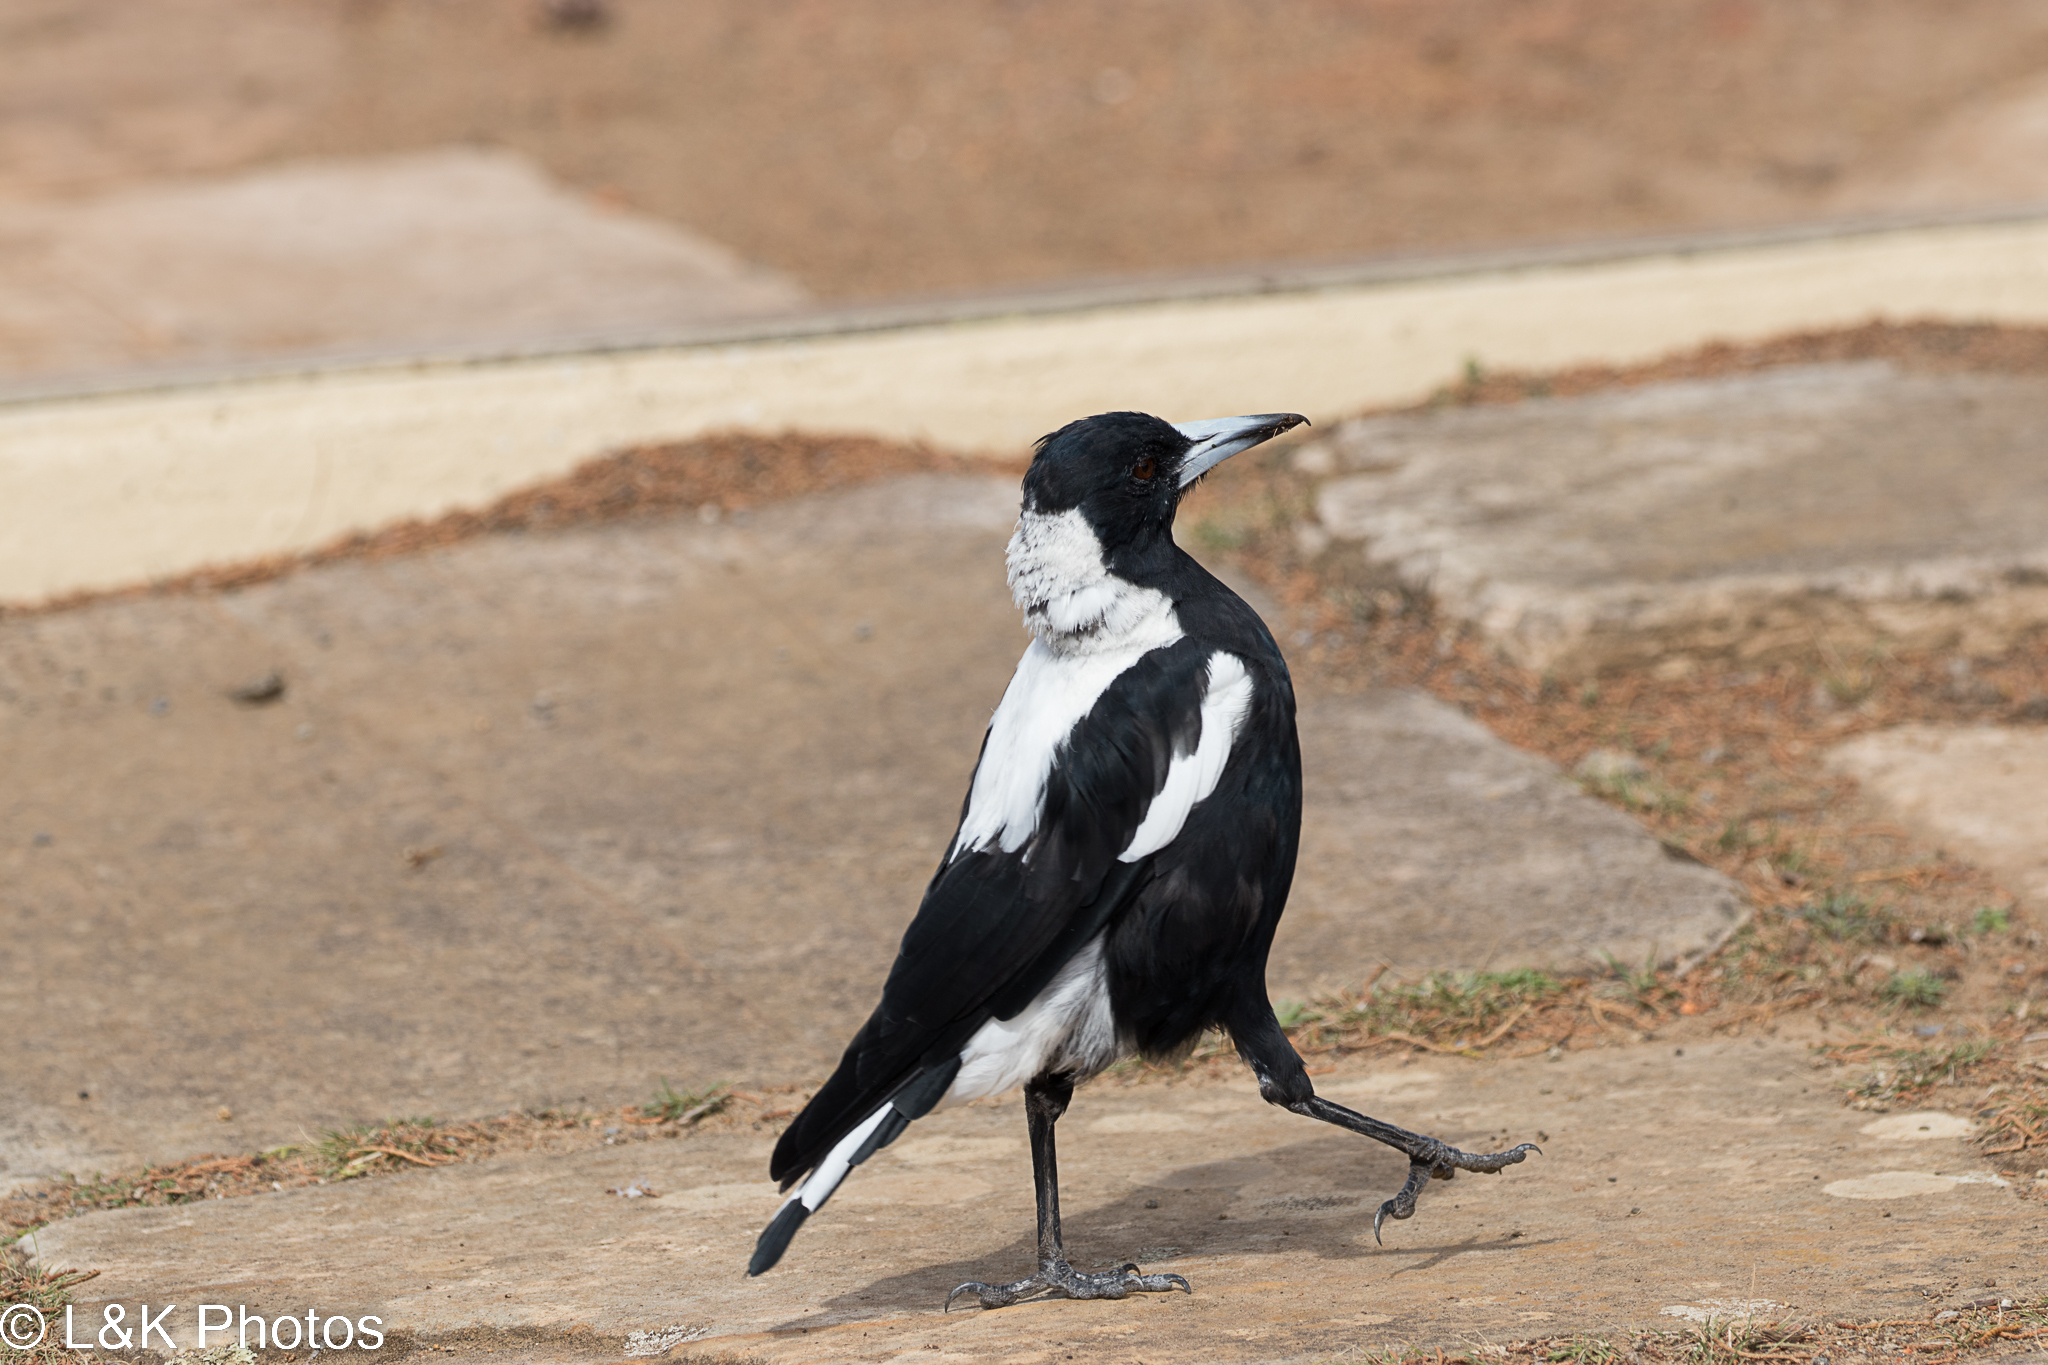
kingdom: Animalia
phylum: Chordata
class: Aves
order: Passeriformes
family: Cracticidae
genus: Gymnorhina
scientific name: Gymnorhina tibicen
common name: Australian magpie
